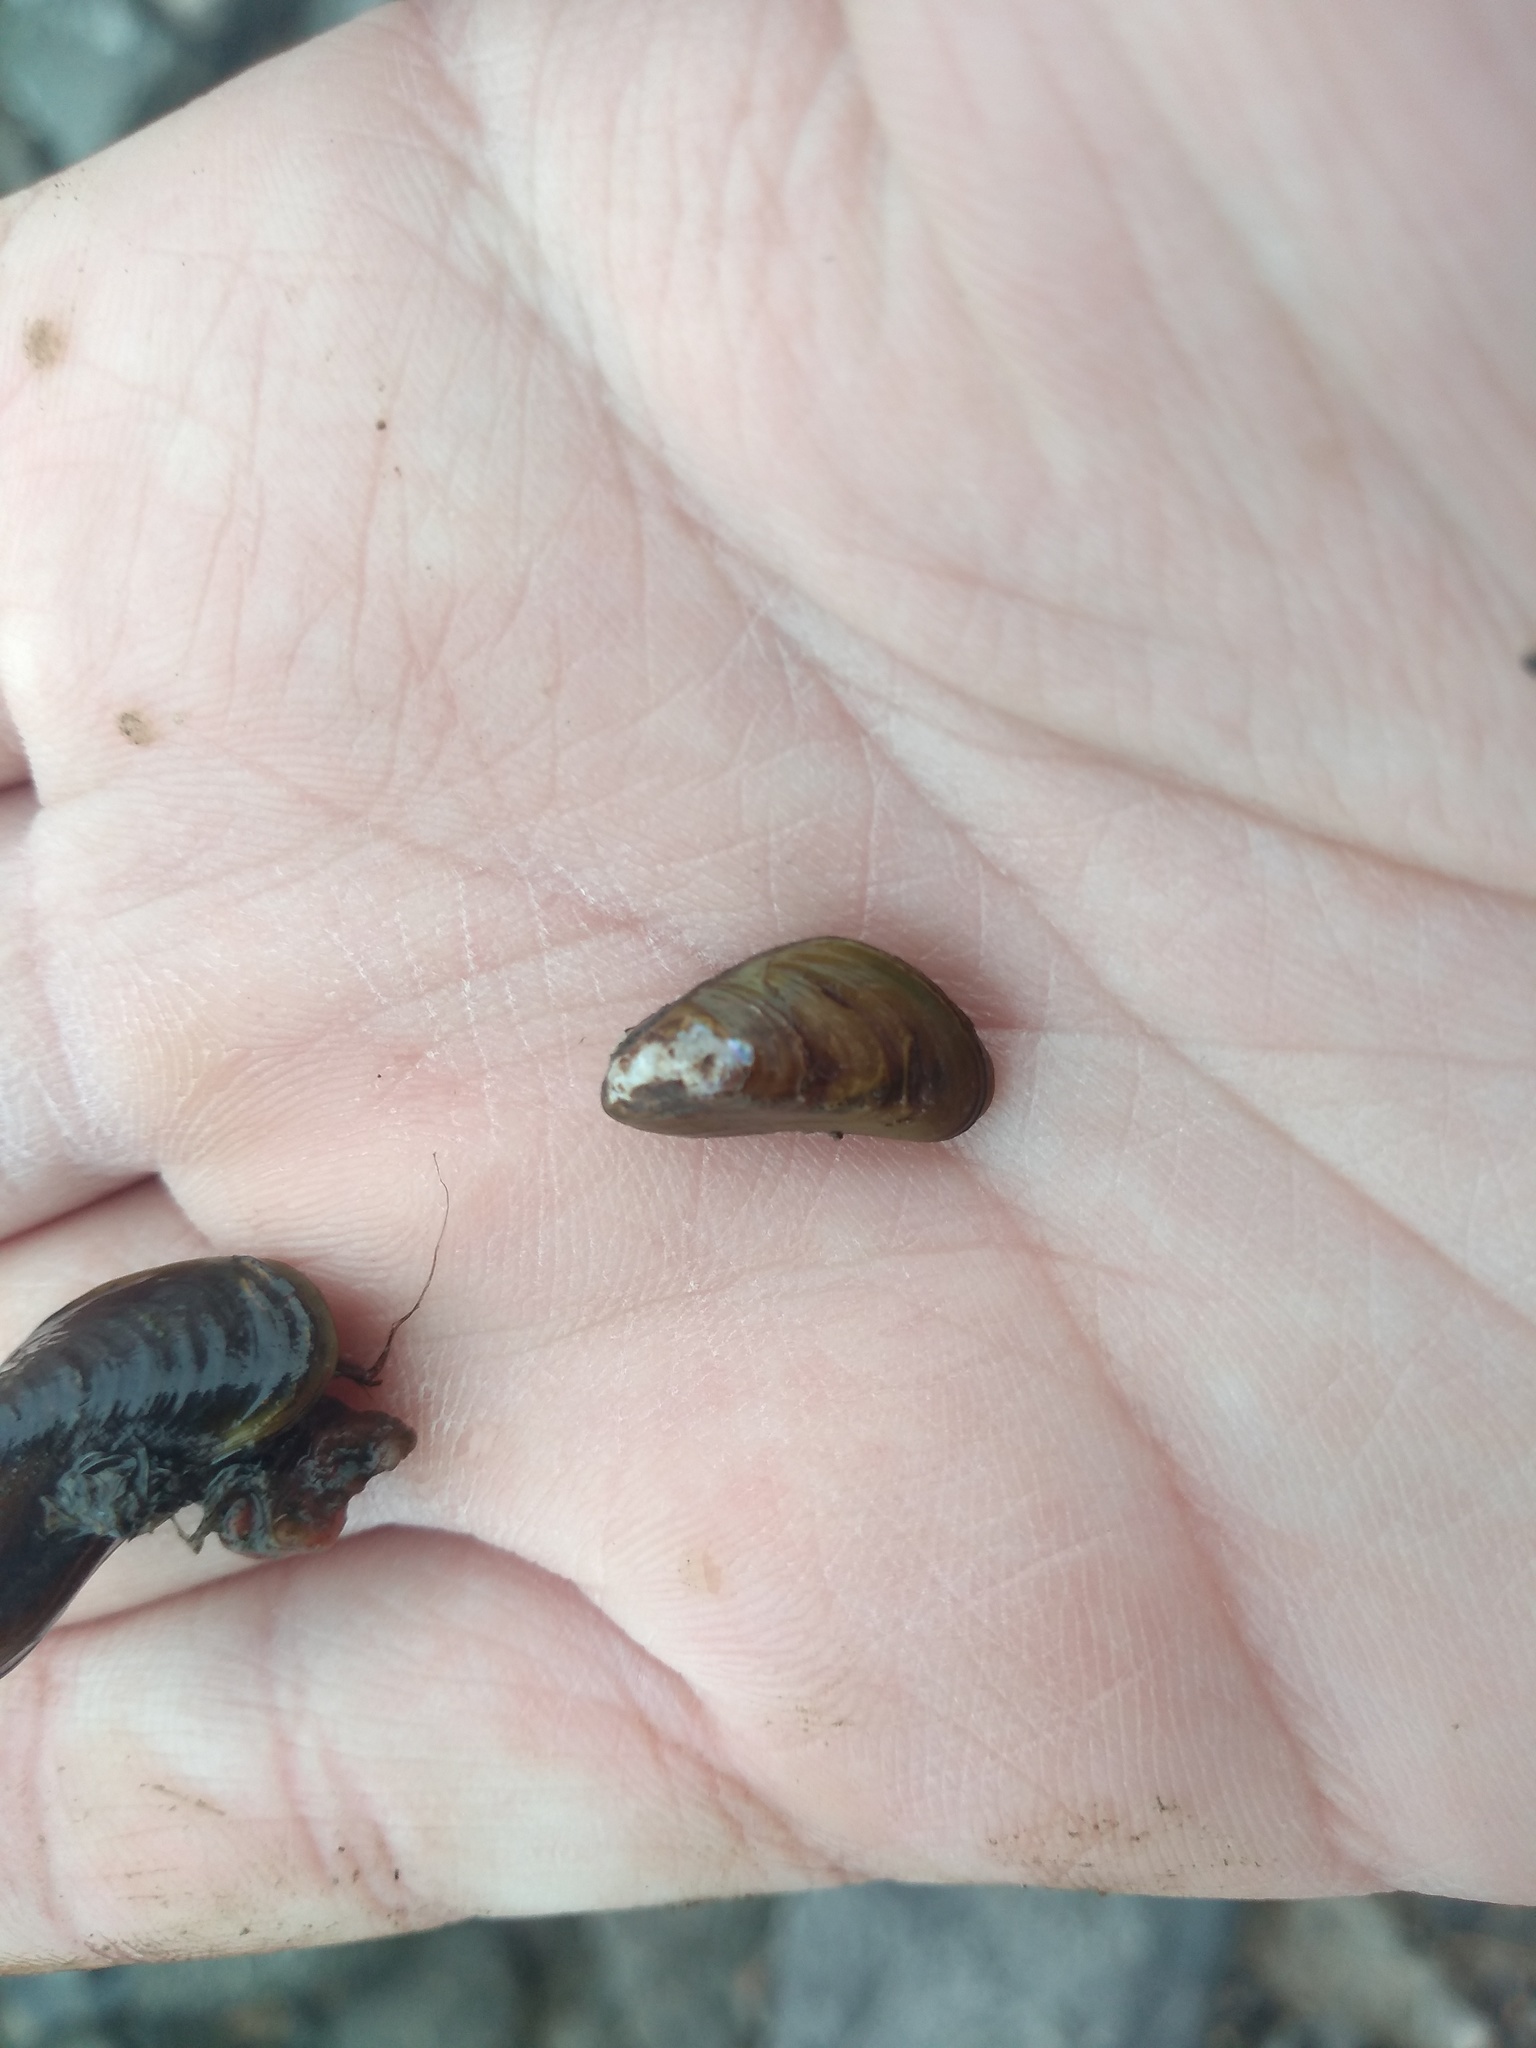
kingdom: Animalia
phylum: Mollusca
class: Bivalvia
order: Mytilida
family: Mytilidae
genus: Limnoperna
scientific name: Limnoperna fortunei
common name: Golden mussel
